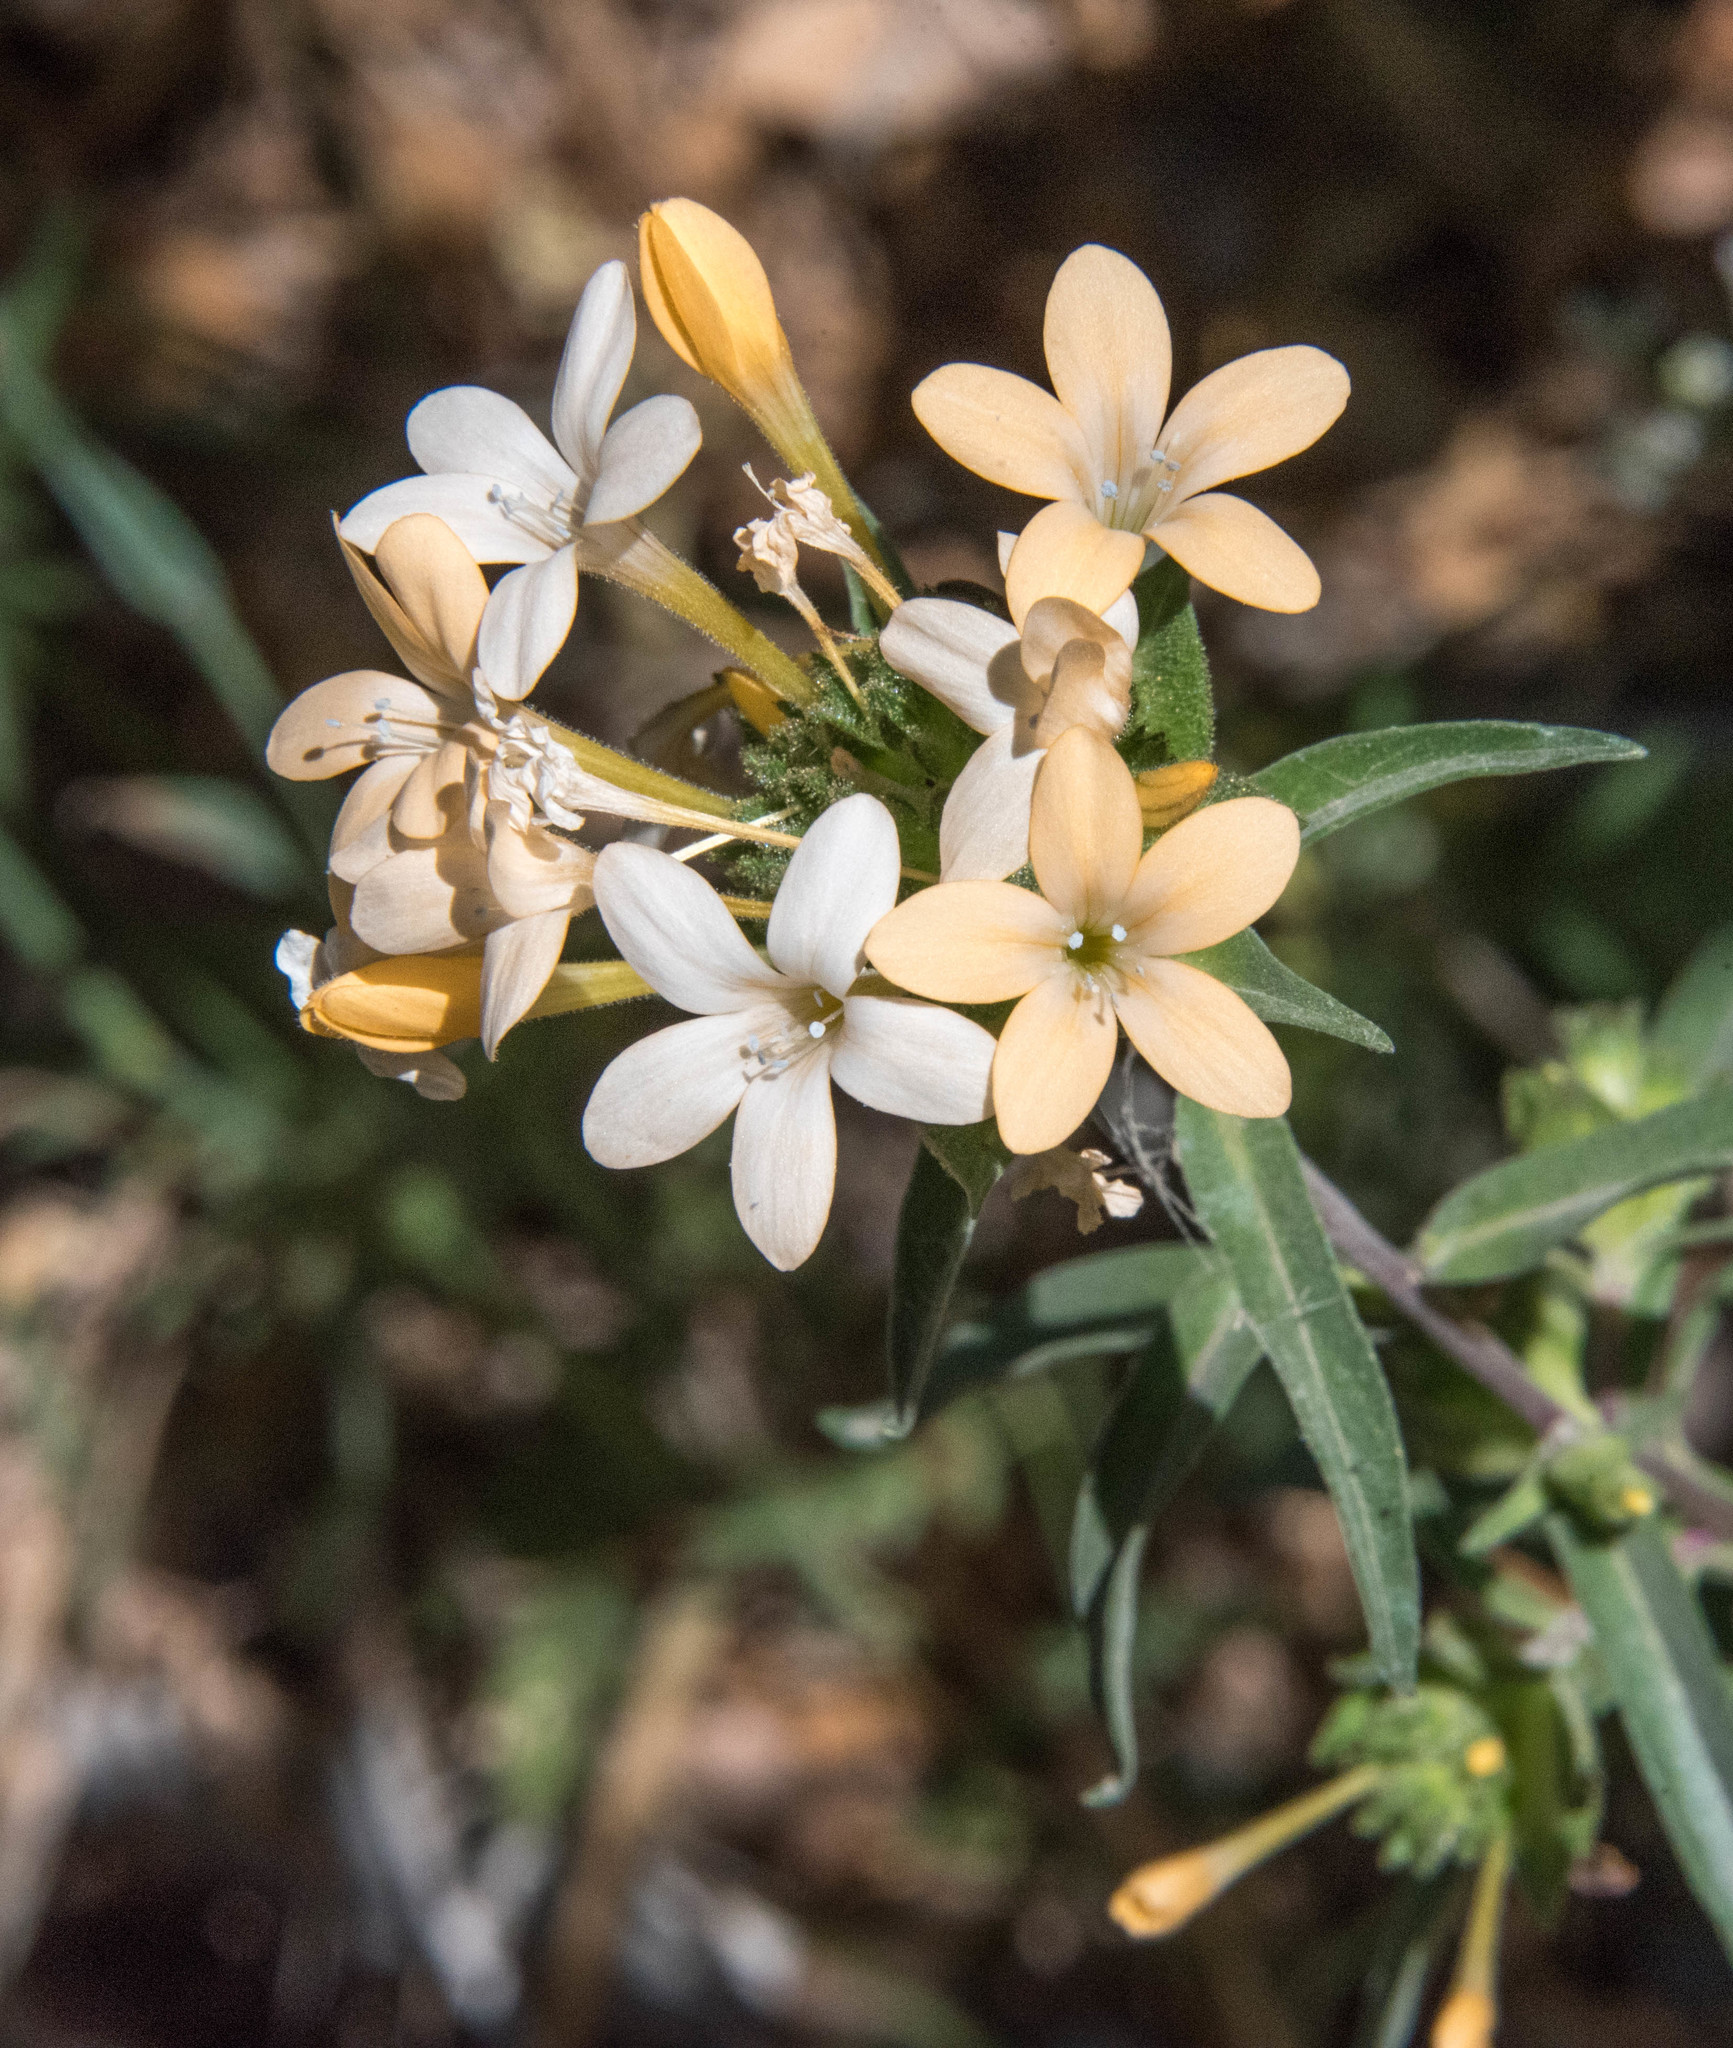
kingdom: Plantae
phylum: Tracheophyta
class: Magnoliopsida
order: Ericales
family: Polemoniaceae
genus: Collomia
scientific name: Collomia grandiflora
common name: California strawflower
